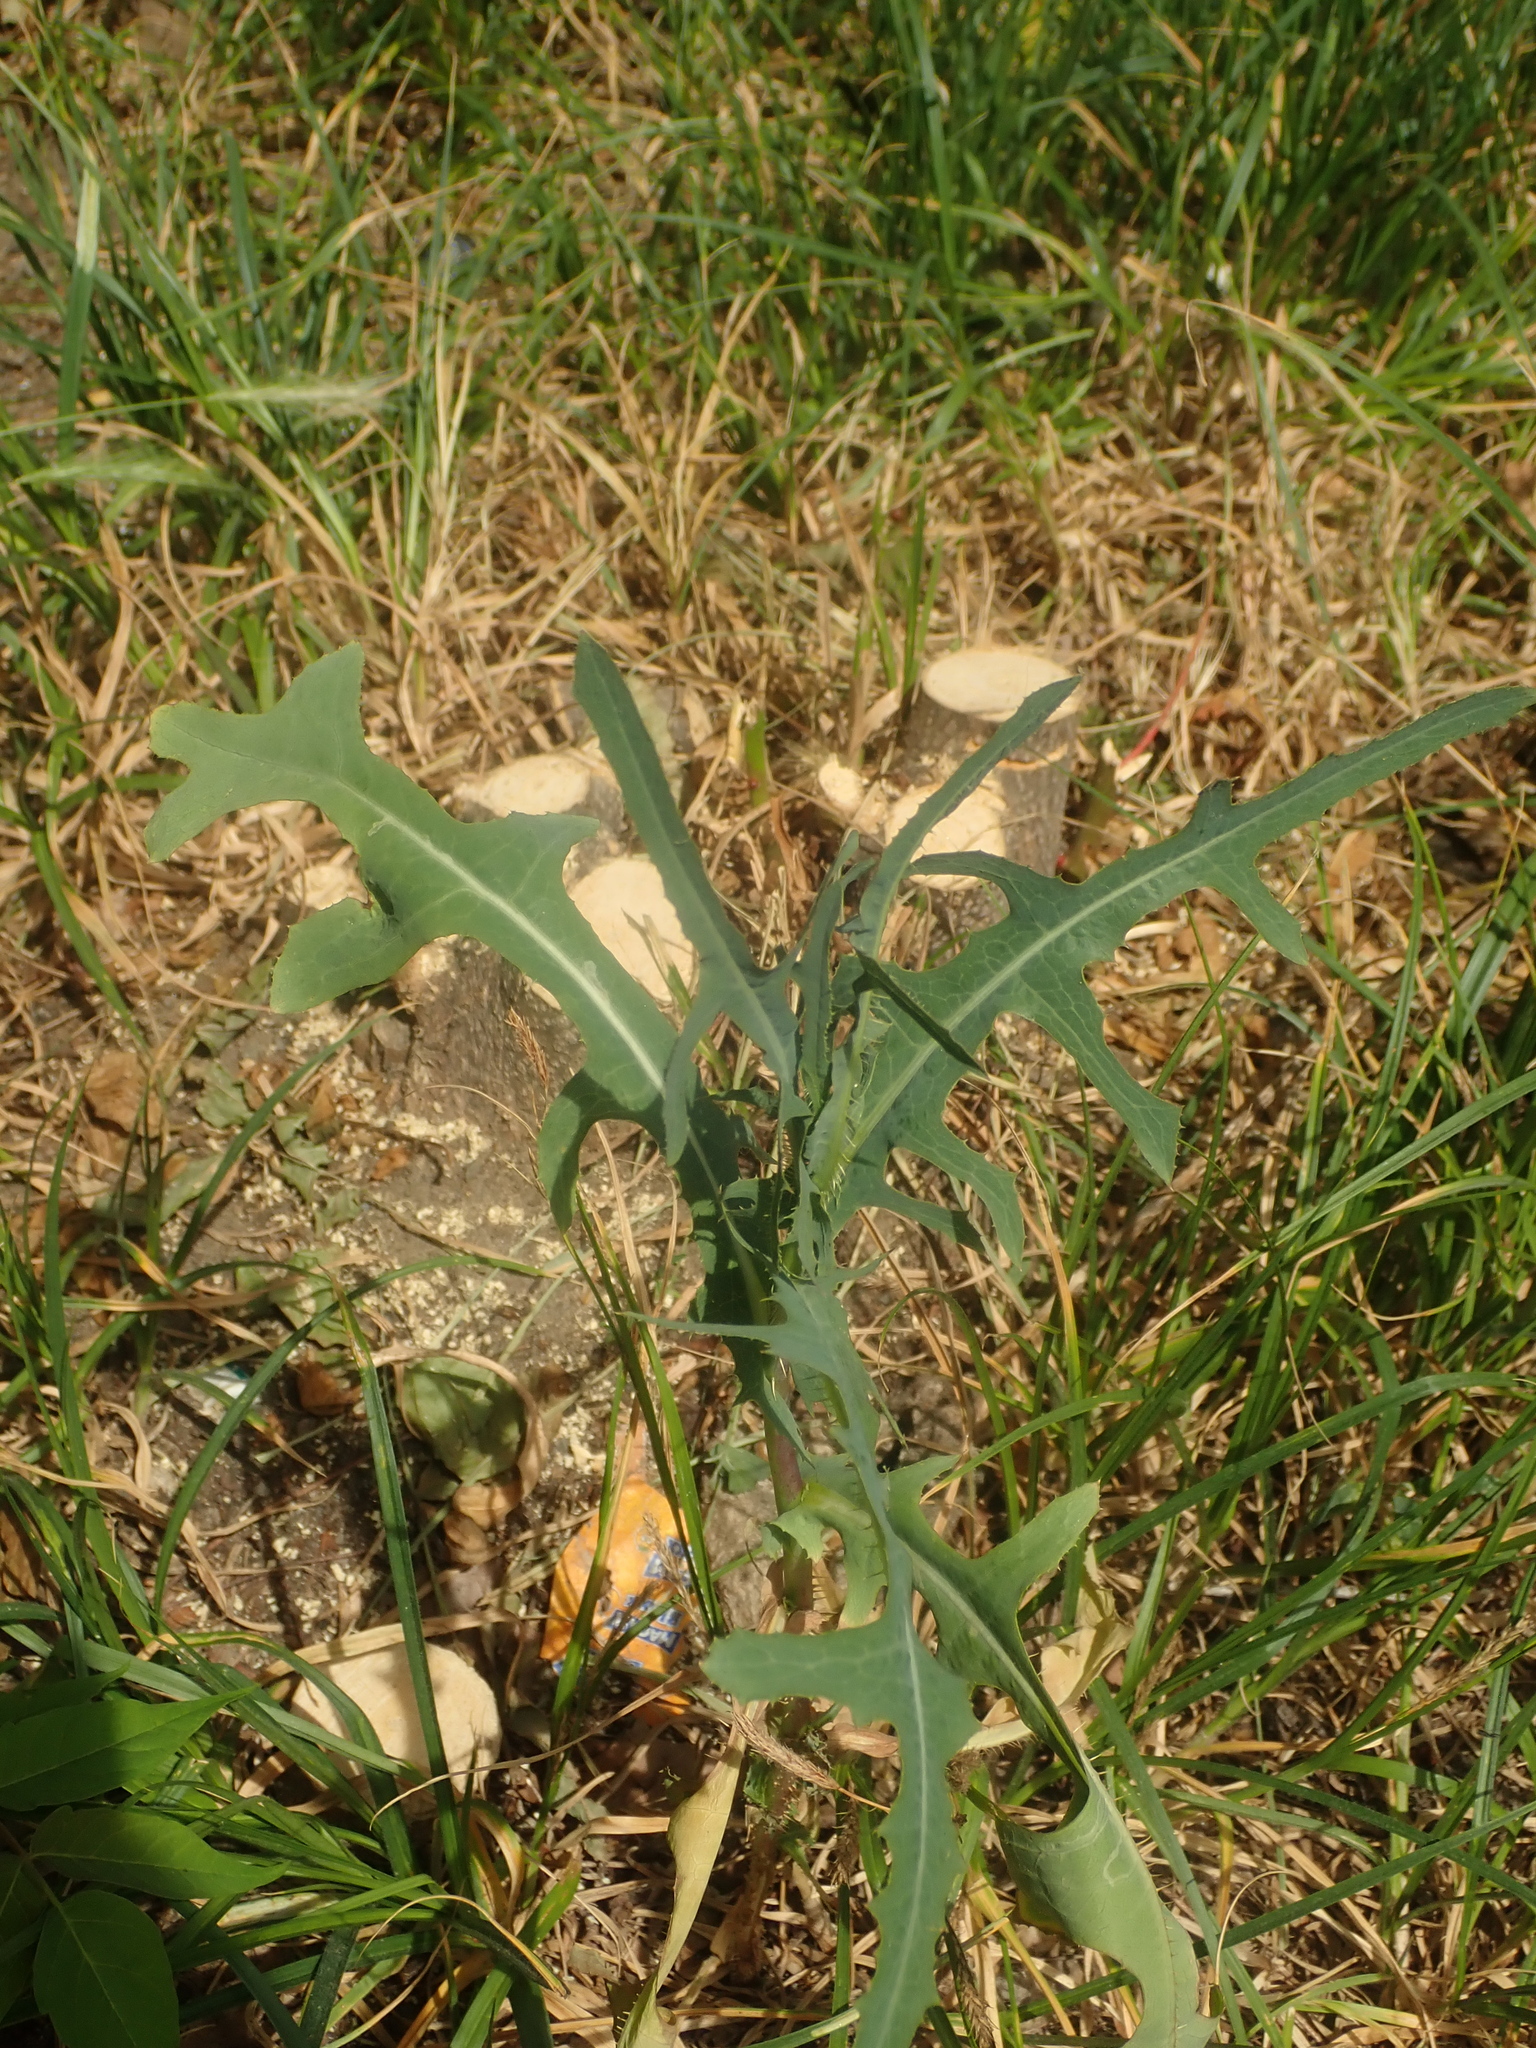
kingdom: Plantae
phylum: Tracheophyta
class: Magnoliopsida
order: Asterales
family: Asteraceae
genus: Lactuca
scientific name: Lactuca serriola
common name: Prickly lettuce
